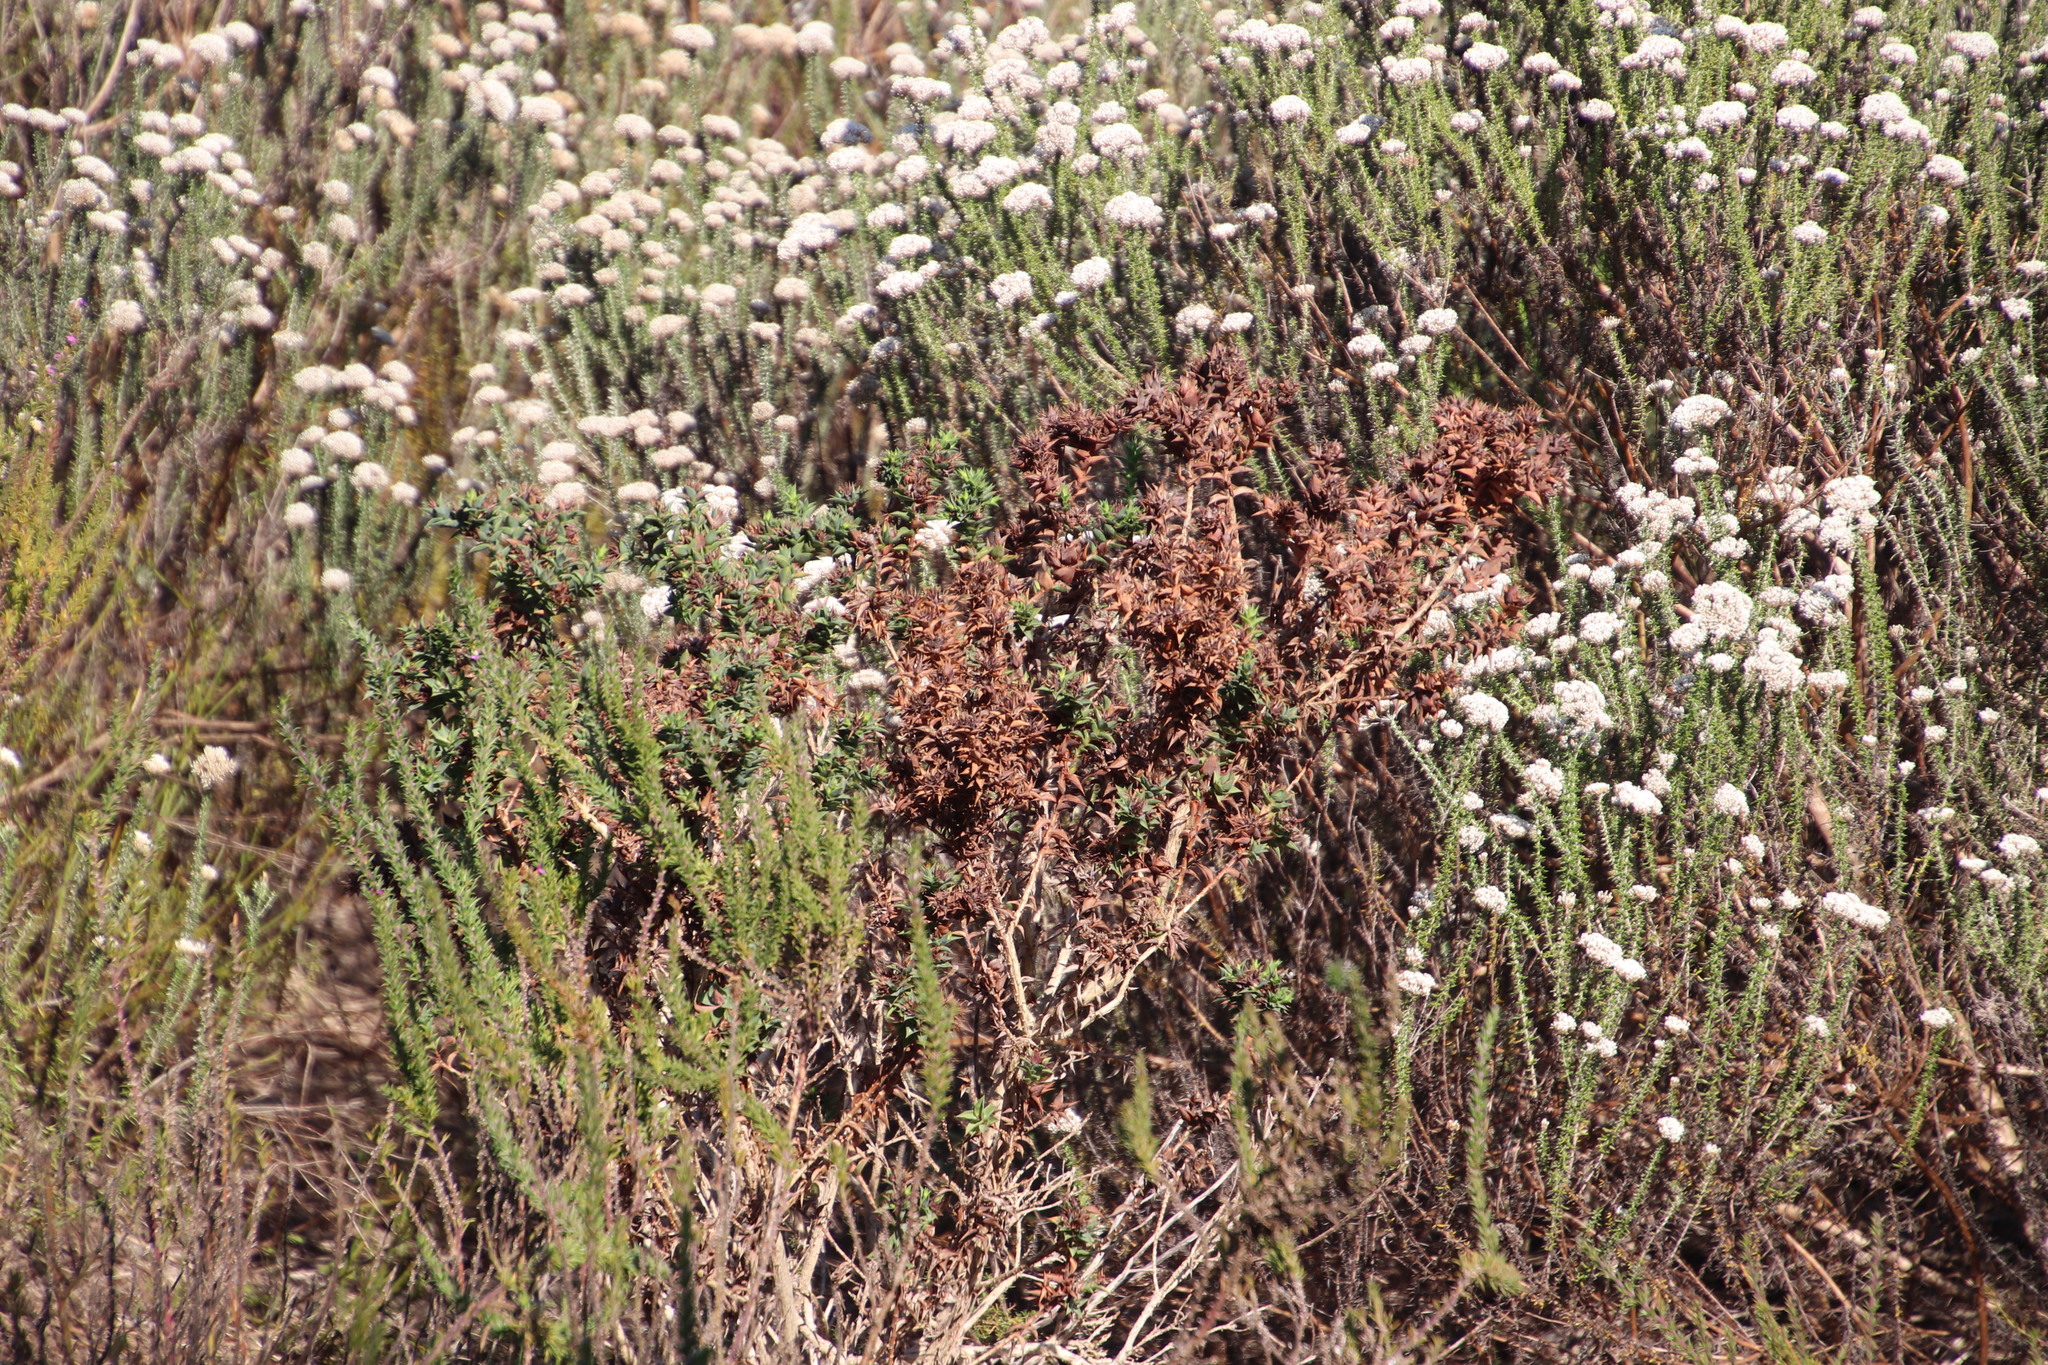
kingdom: Plantae
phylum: Tracheophyta
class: Magnoliopsida
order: Fabales
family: Fabaceae
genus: Aspalathus
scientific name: Aspalathus cordata
